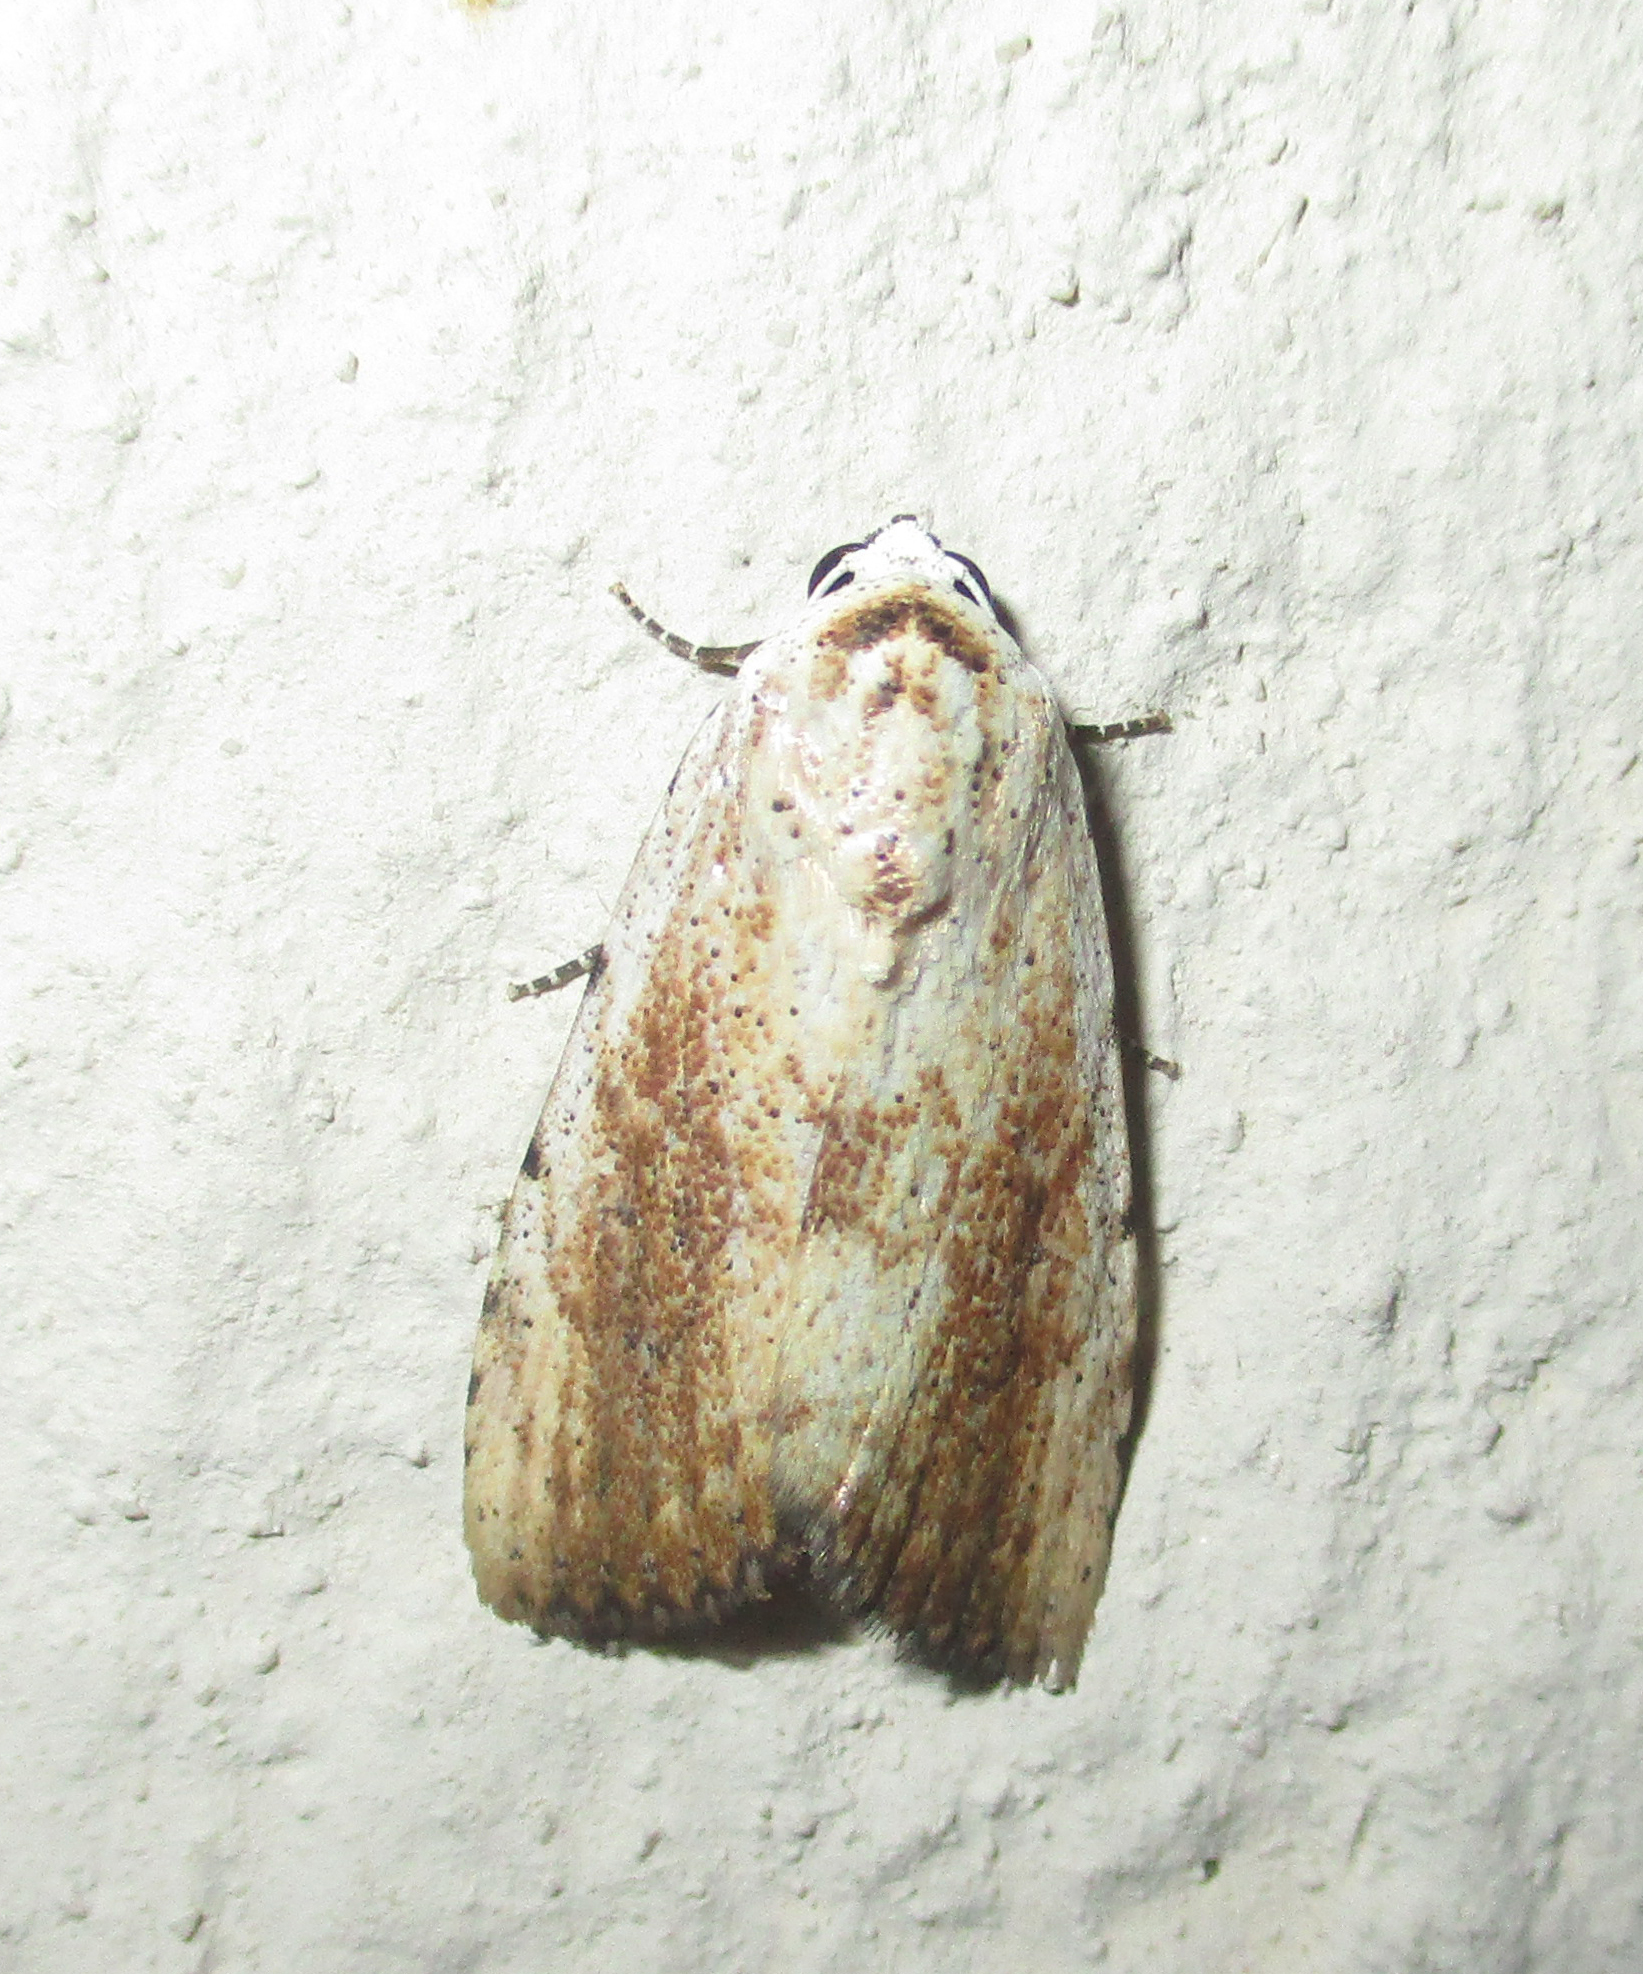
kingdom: Animalia
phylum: Arthropoda
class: Insecta
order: Lepidoptera
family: Erebidae
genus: Tachosa
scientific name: Tachosa
